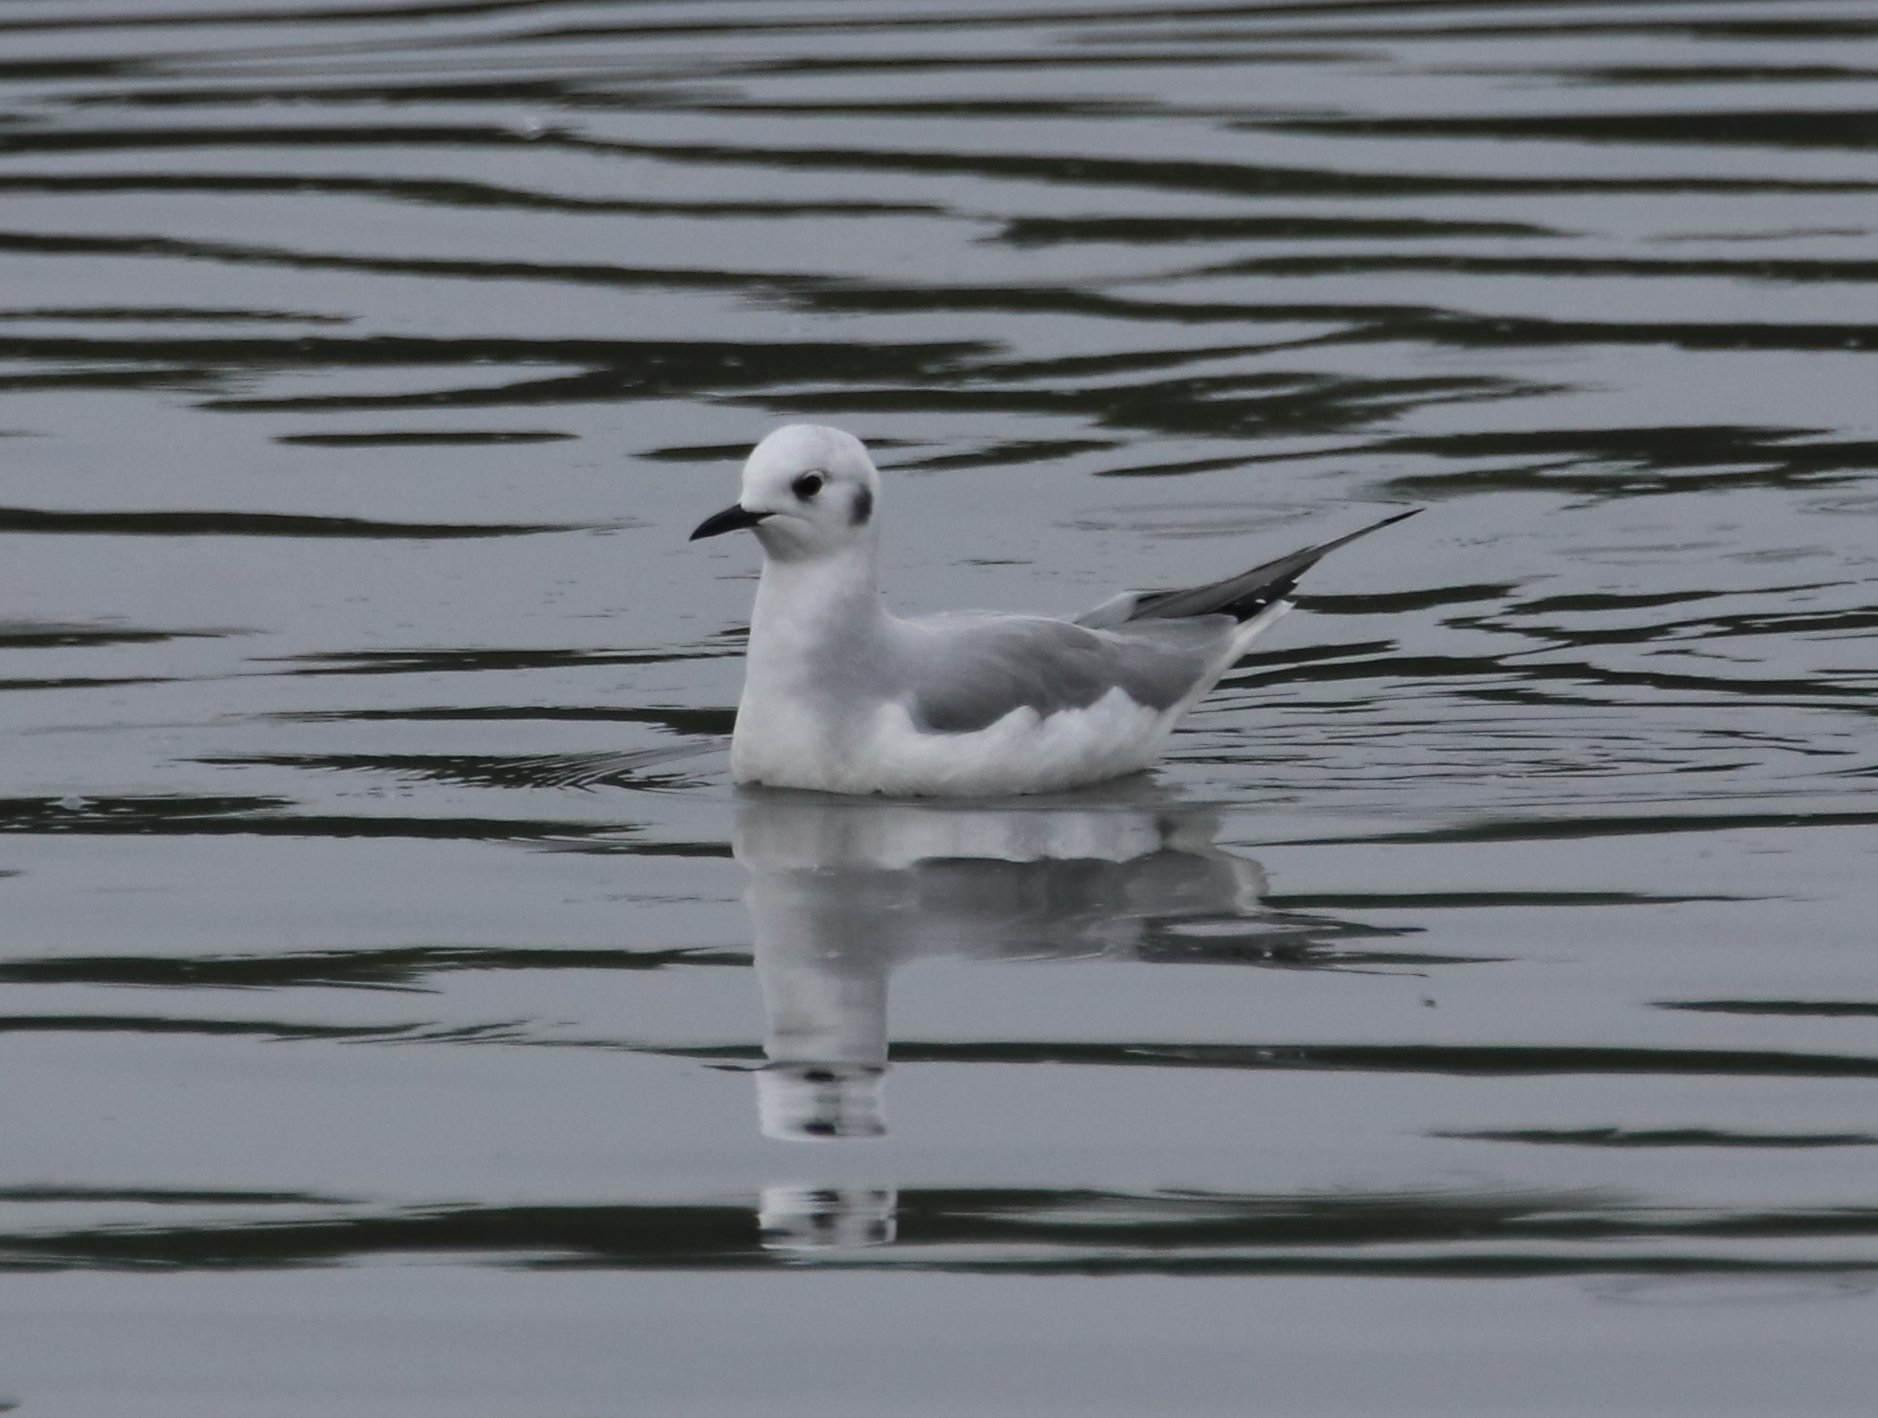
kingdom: Animalia
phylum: Chordata
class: Aves
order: Charadriiformes
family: Laridae
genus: Chroicocephalus
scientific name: Chroicocephalus philadelphia
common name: Bonaparte's gull
